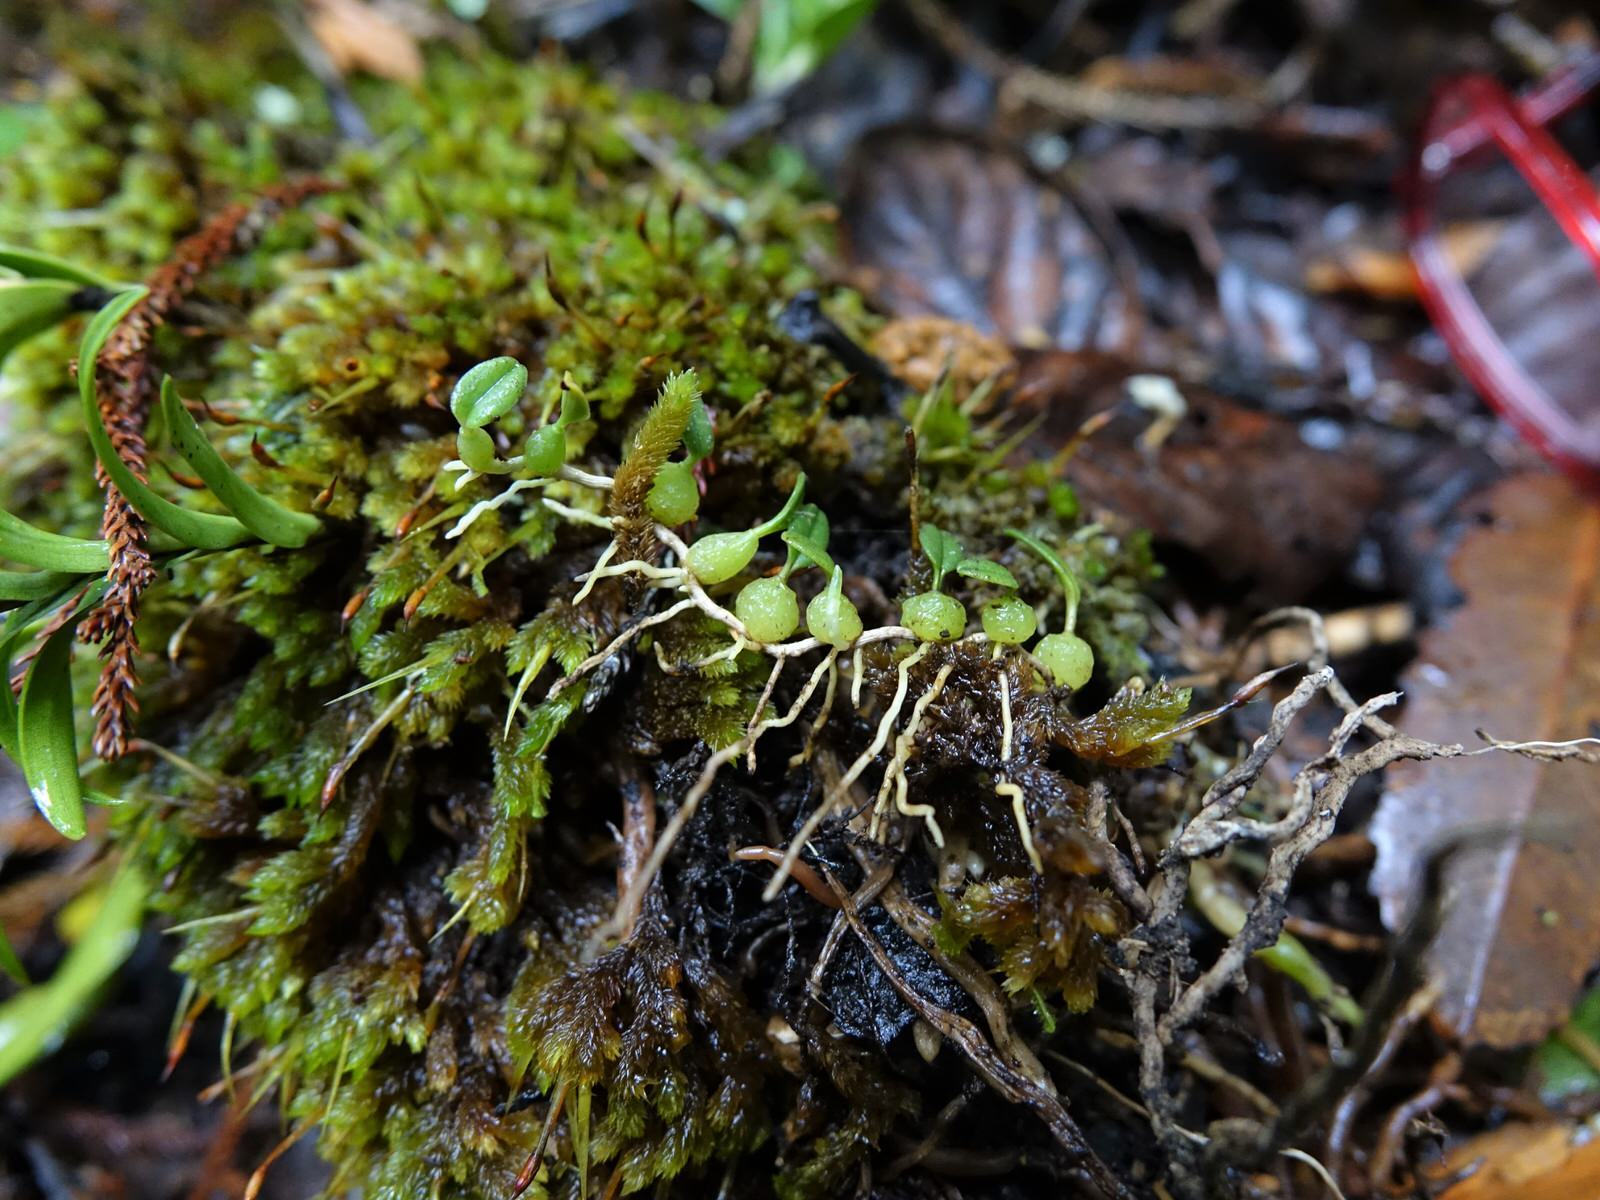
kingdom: Plantae
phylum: Tracheophyta
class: Liliopsida
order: Asparagales
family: Orchidaceae
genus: Bulbophyllum
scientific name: Bulbophyllum pygmaeum
